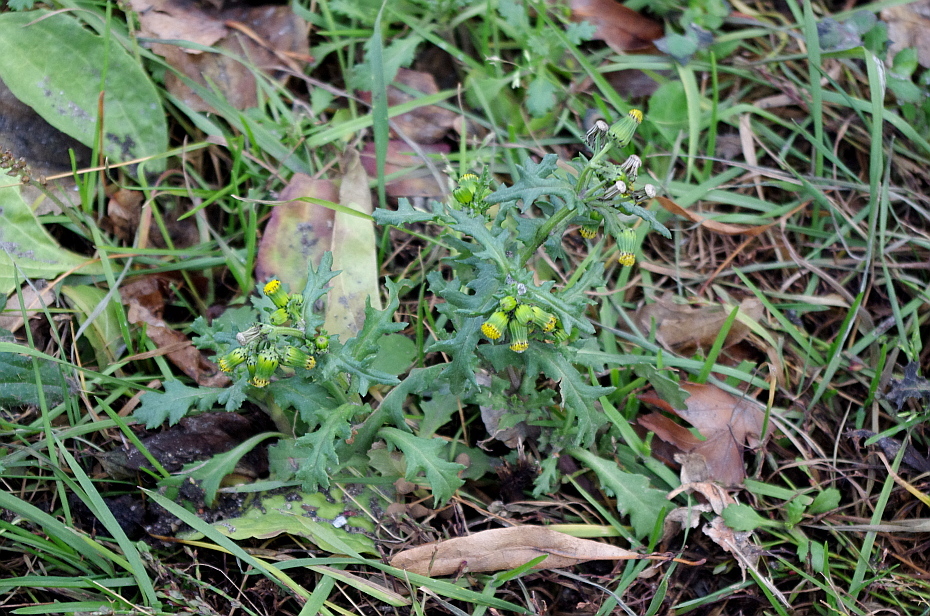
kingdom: Plantae
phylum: Tracheophyta
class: Magnoliopsida
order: Asterales
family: Asteraceae
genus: Senecio
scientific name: Senecio vulgaris
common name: Old-man-in-the-spring
